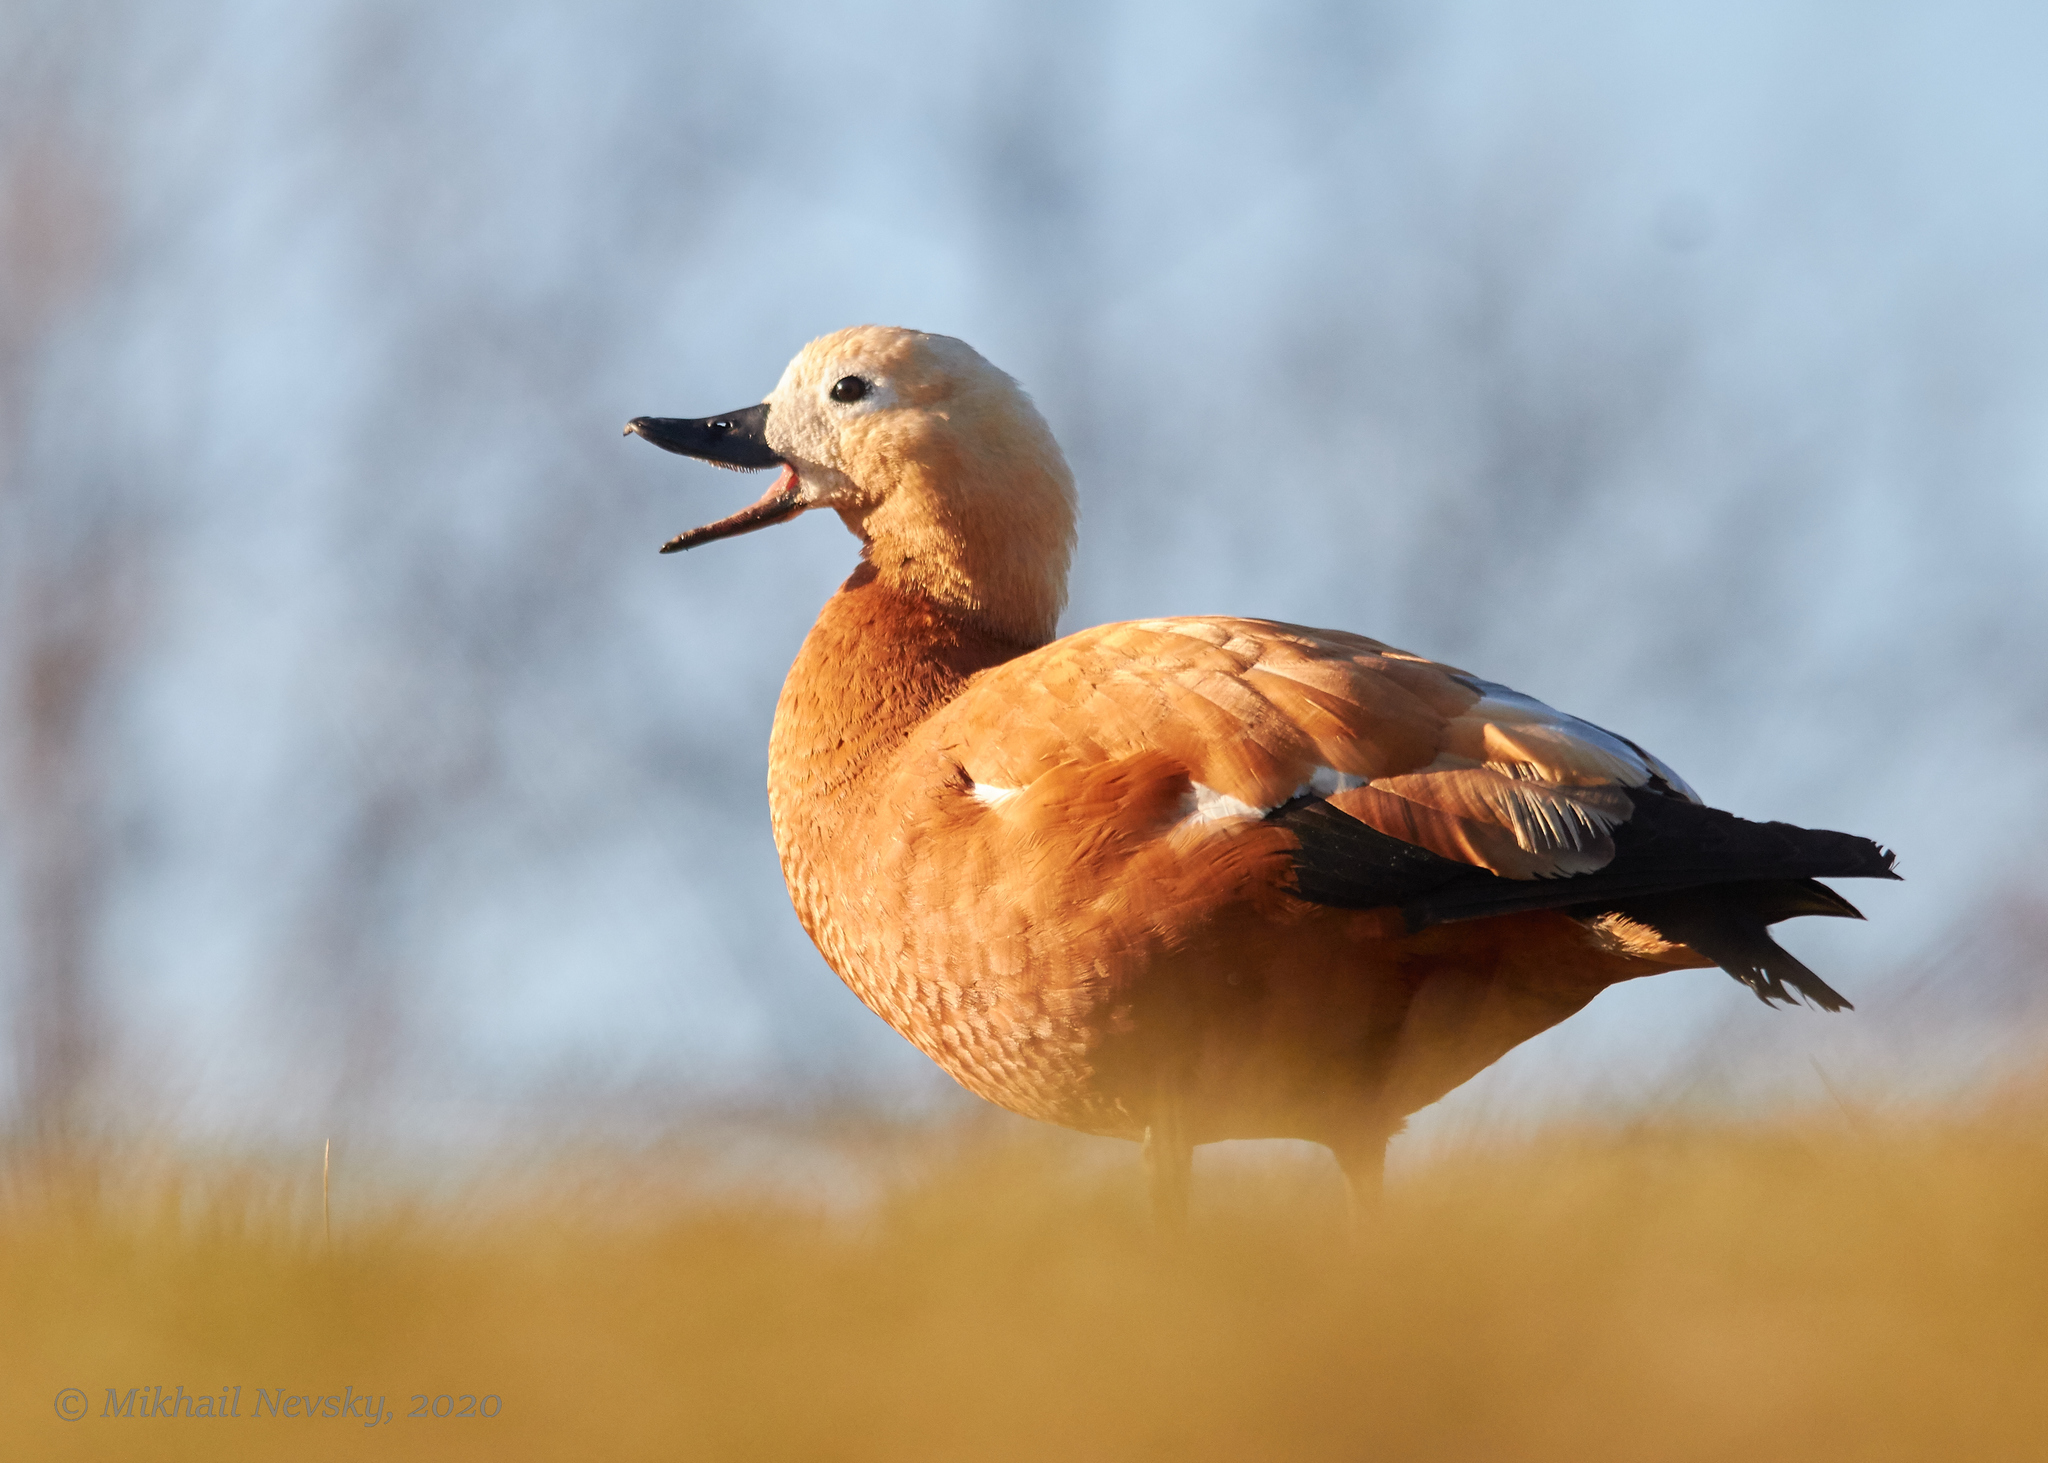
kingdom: Animalia
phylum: Chordata
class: Aves
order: Anseriformes
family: Anatidae
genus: Tadorna
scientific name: Tadorna ferruginea
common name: Ruddy shelduck
